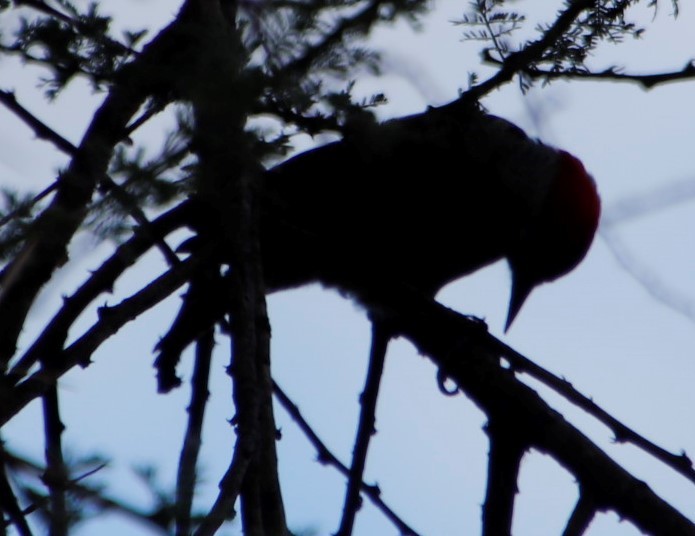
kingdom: Animalia
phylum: Chordata
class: Aves
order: Piciformes
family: Picidae
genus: Dendropicos
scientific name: Dendropicos fuscescens
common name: Cardinal woodpecker
